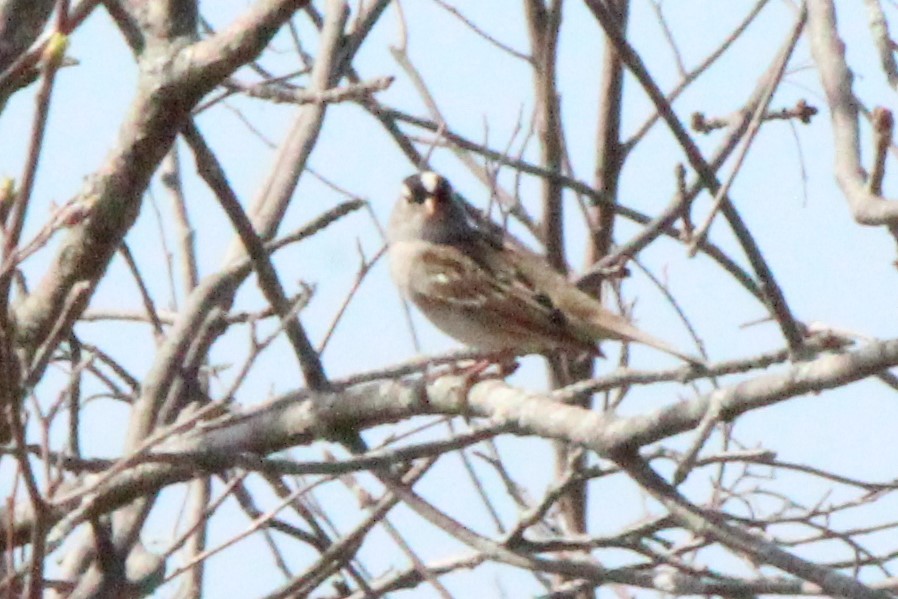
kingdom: Animalia
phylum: Chordata
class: Aves
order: Passeriformes
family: Passerellidae
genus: Zonotrichia
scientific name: Zonotrichia leucophrys
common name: White-crowned sparrow
